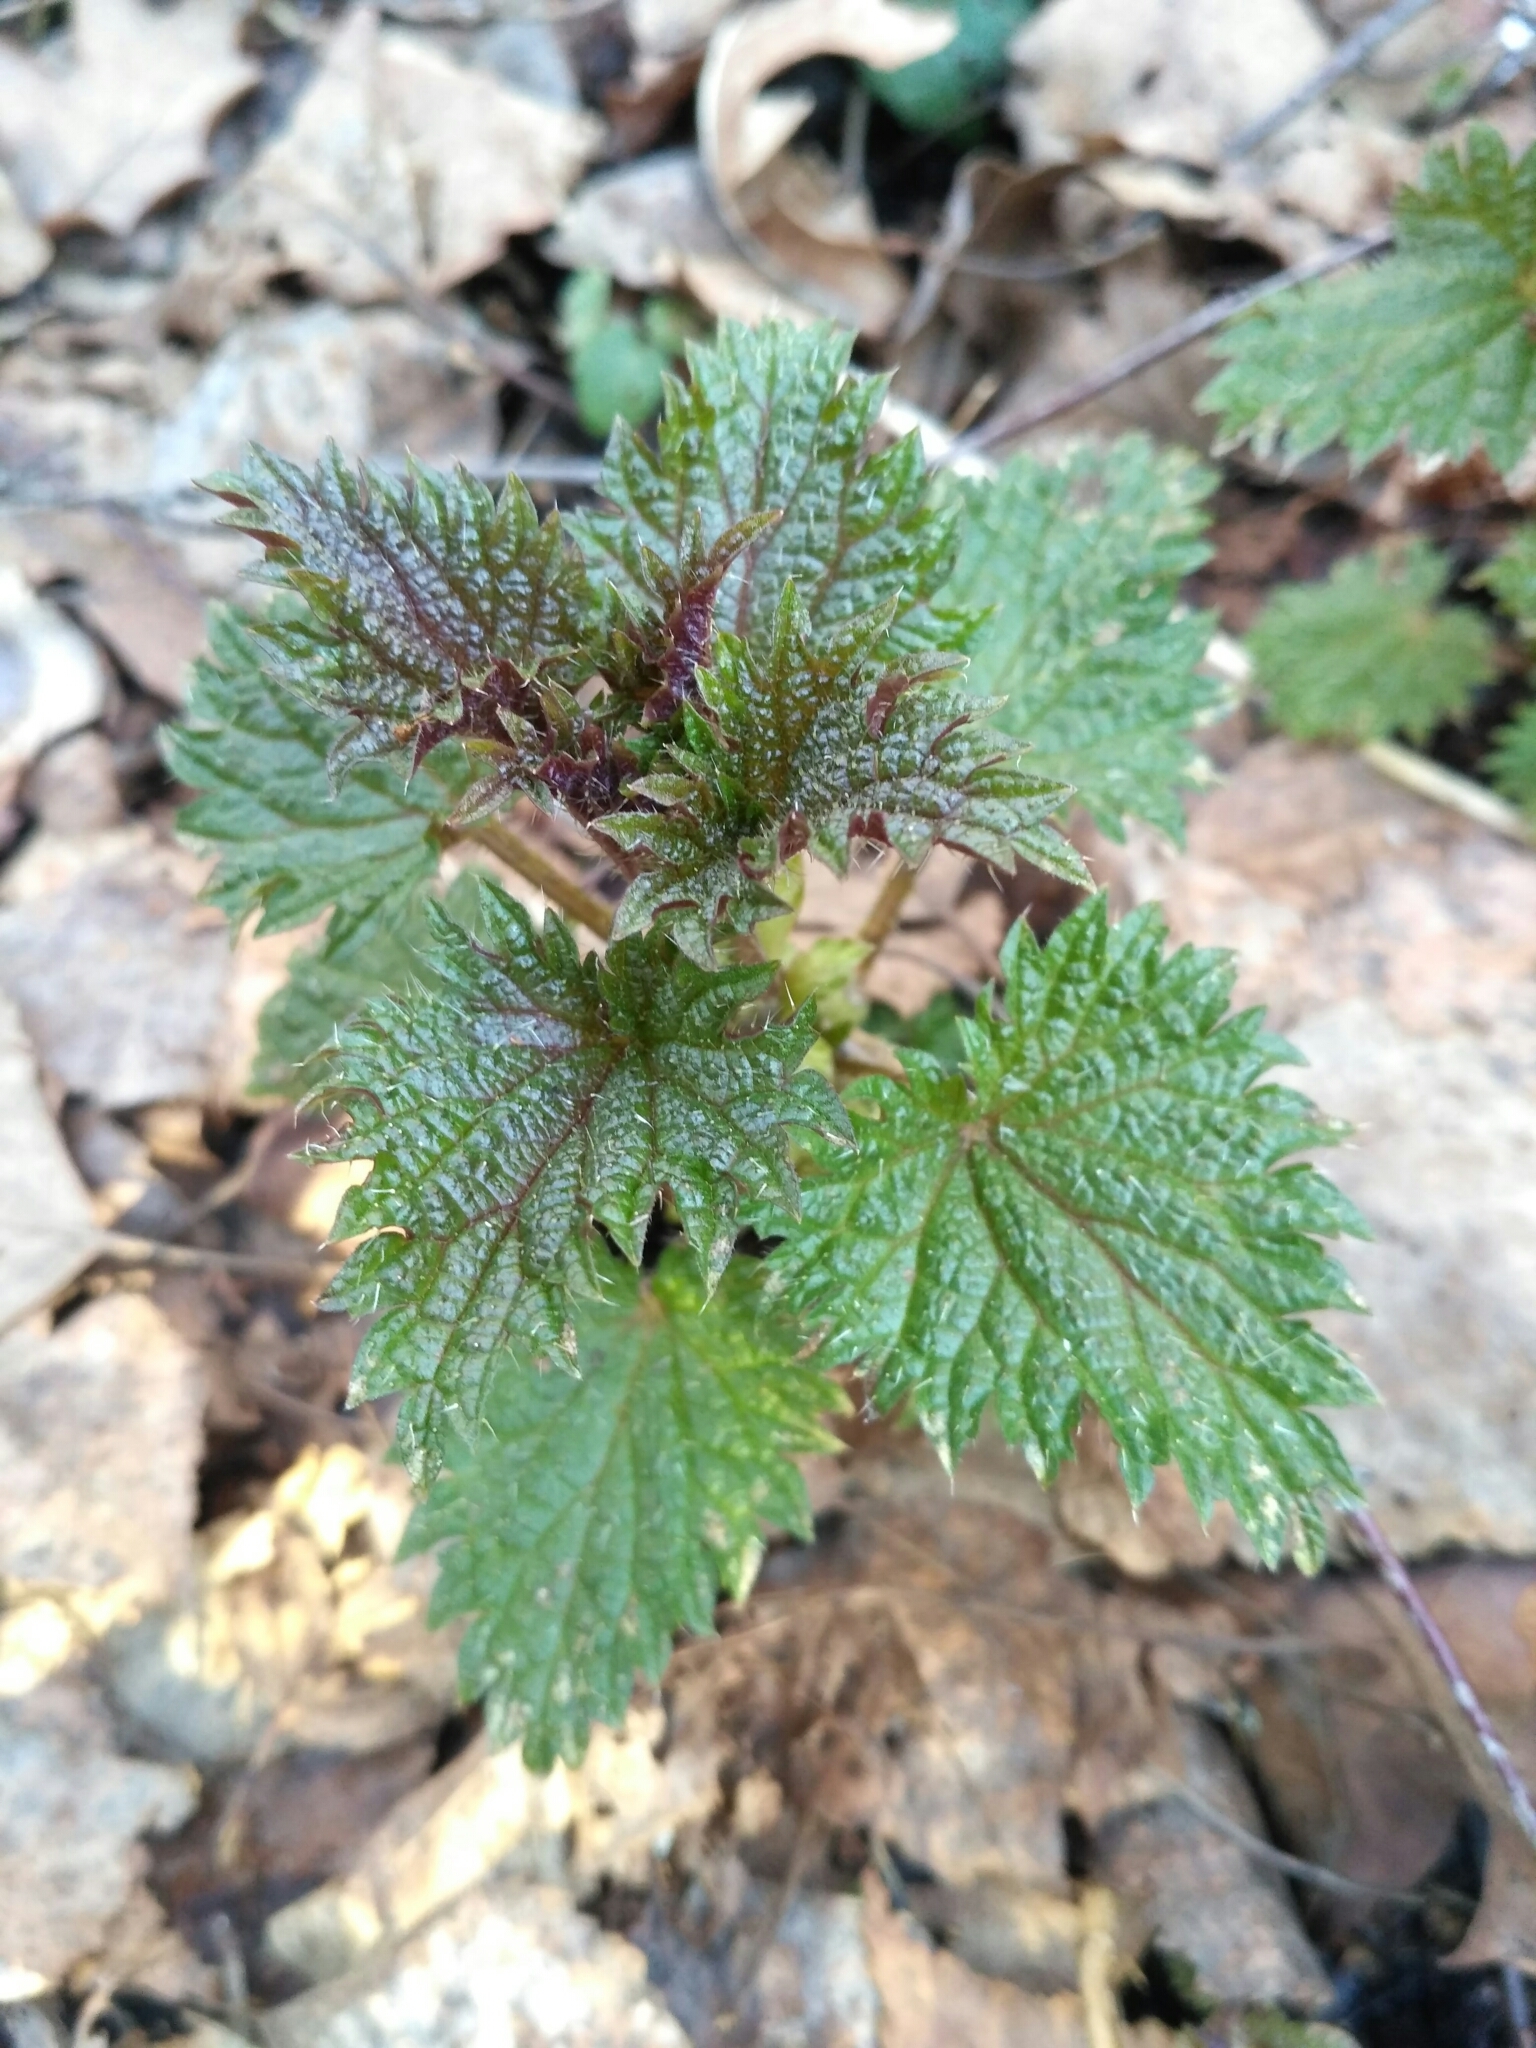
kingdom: Plantae
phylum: Tracheophyta
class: Magnoliopsida
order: Rosales
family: Urticaceae
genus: Urtica
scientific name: Urtica dioica
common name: Common nettle
